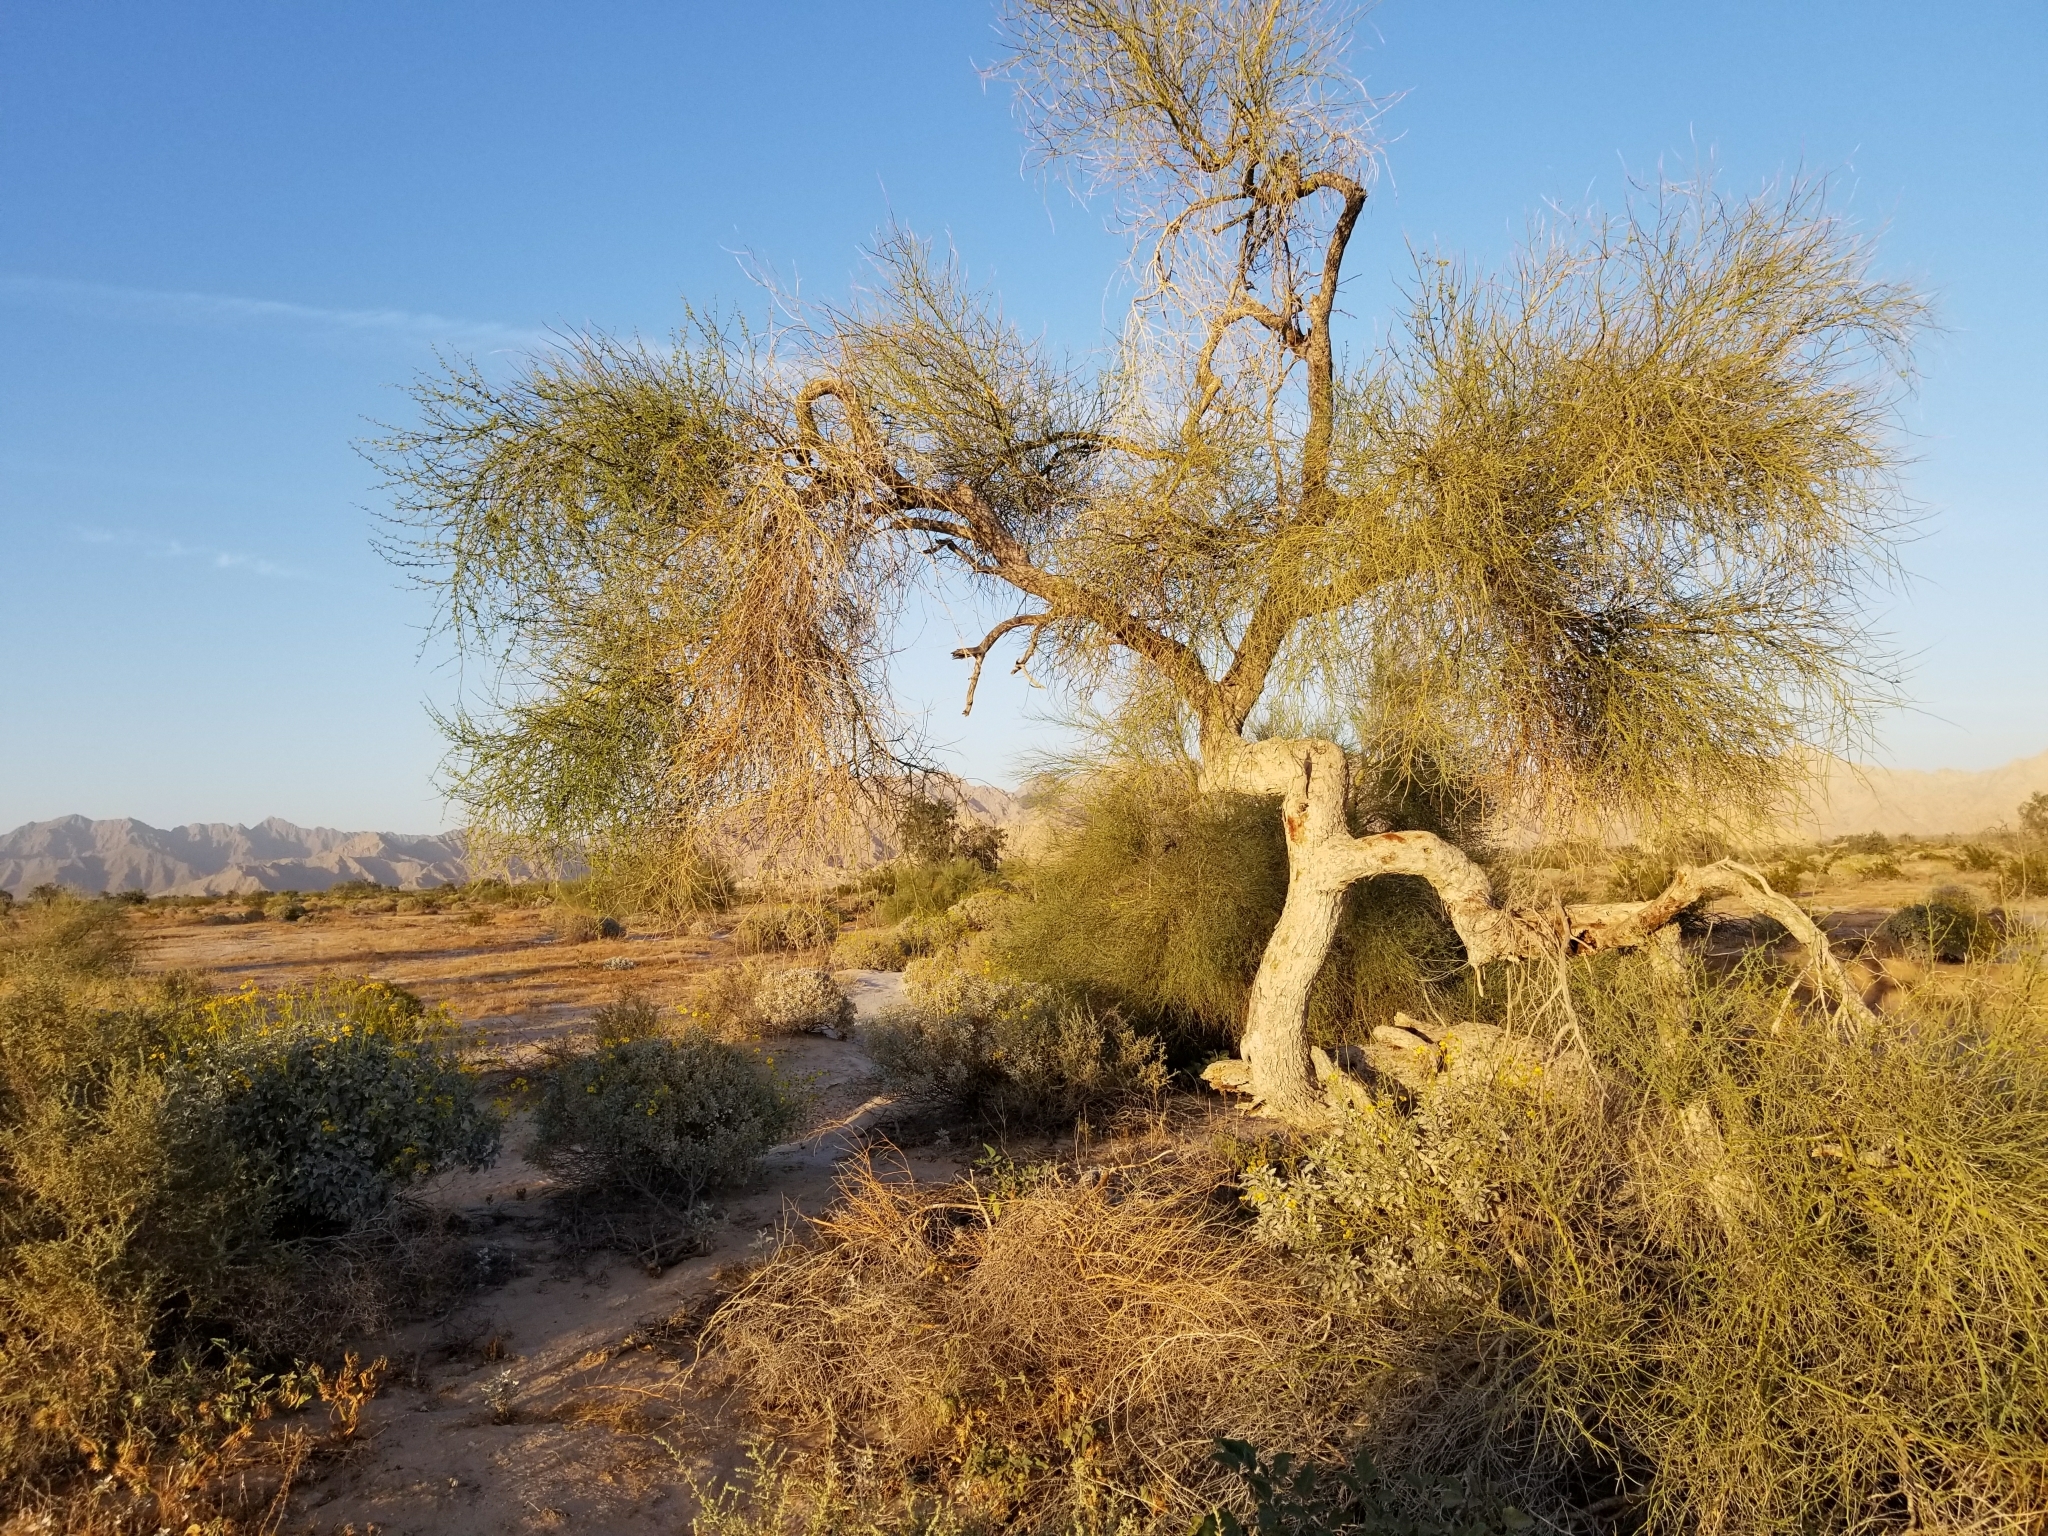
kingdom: Plantae
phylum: Tracheophyta
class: Magnoliopsida
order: Fabales
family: Fabaceae
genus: Parkinsonia
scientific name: Parkinsonia florida
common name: Blue paloverde
